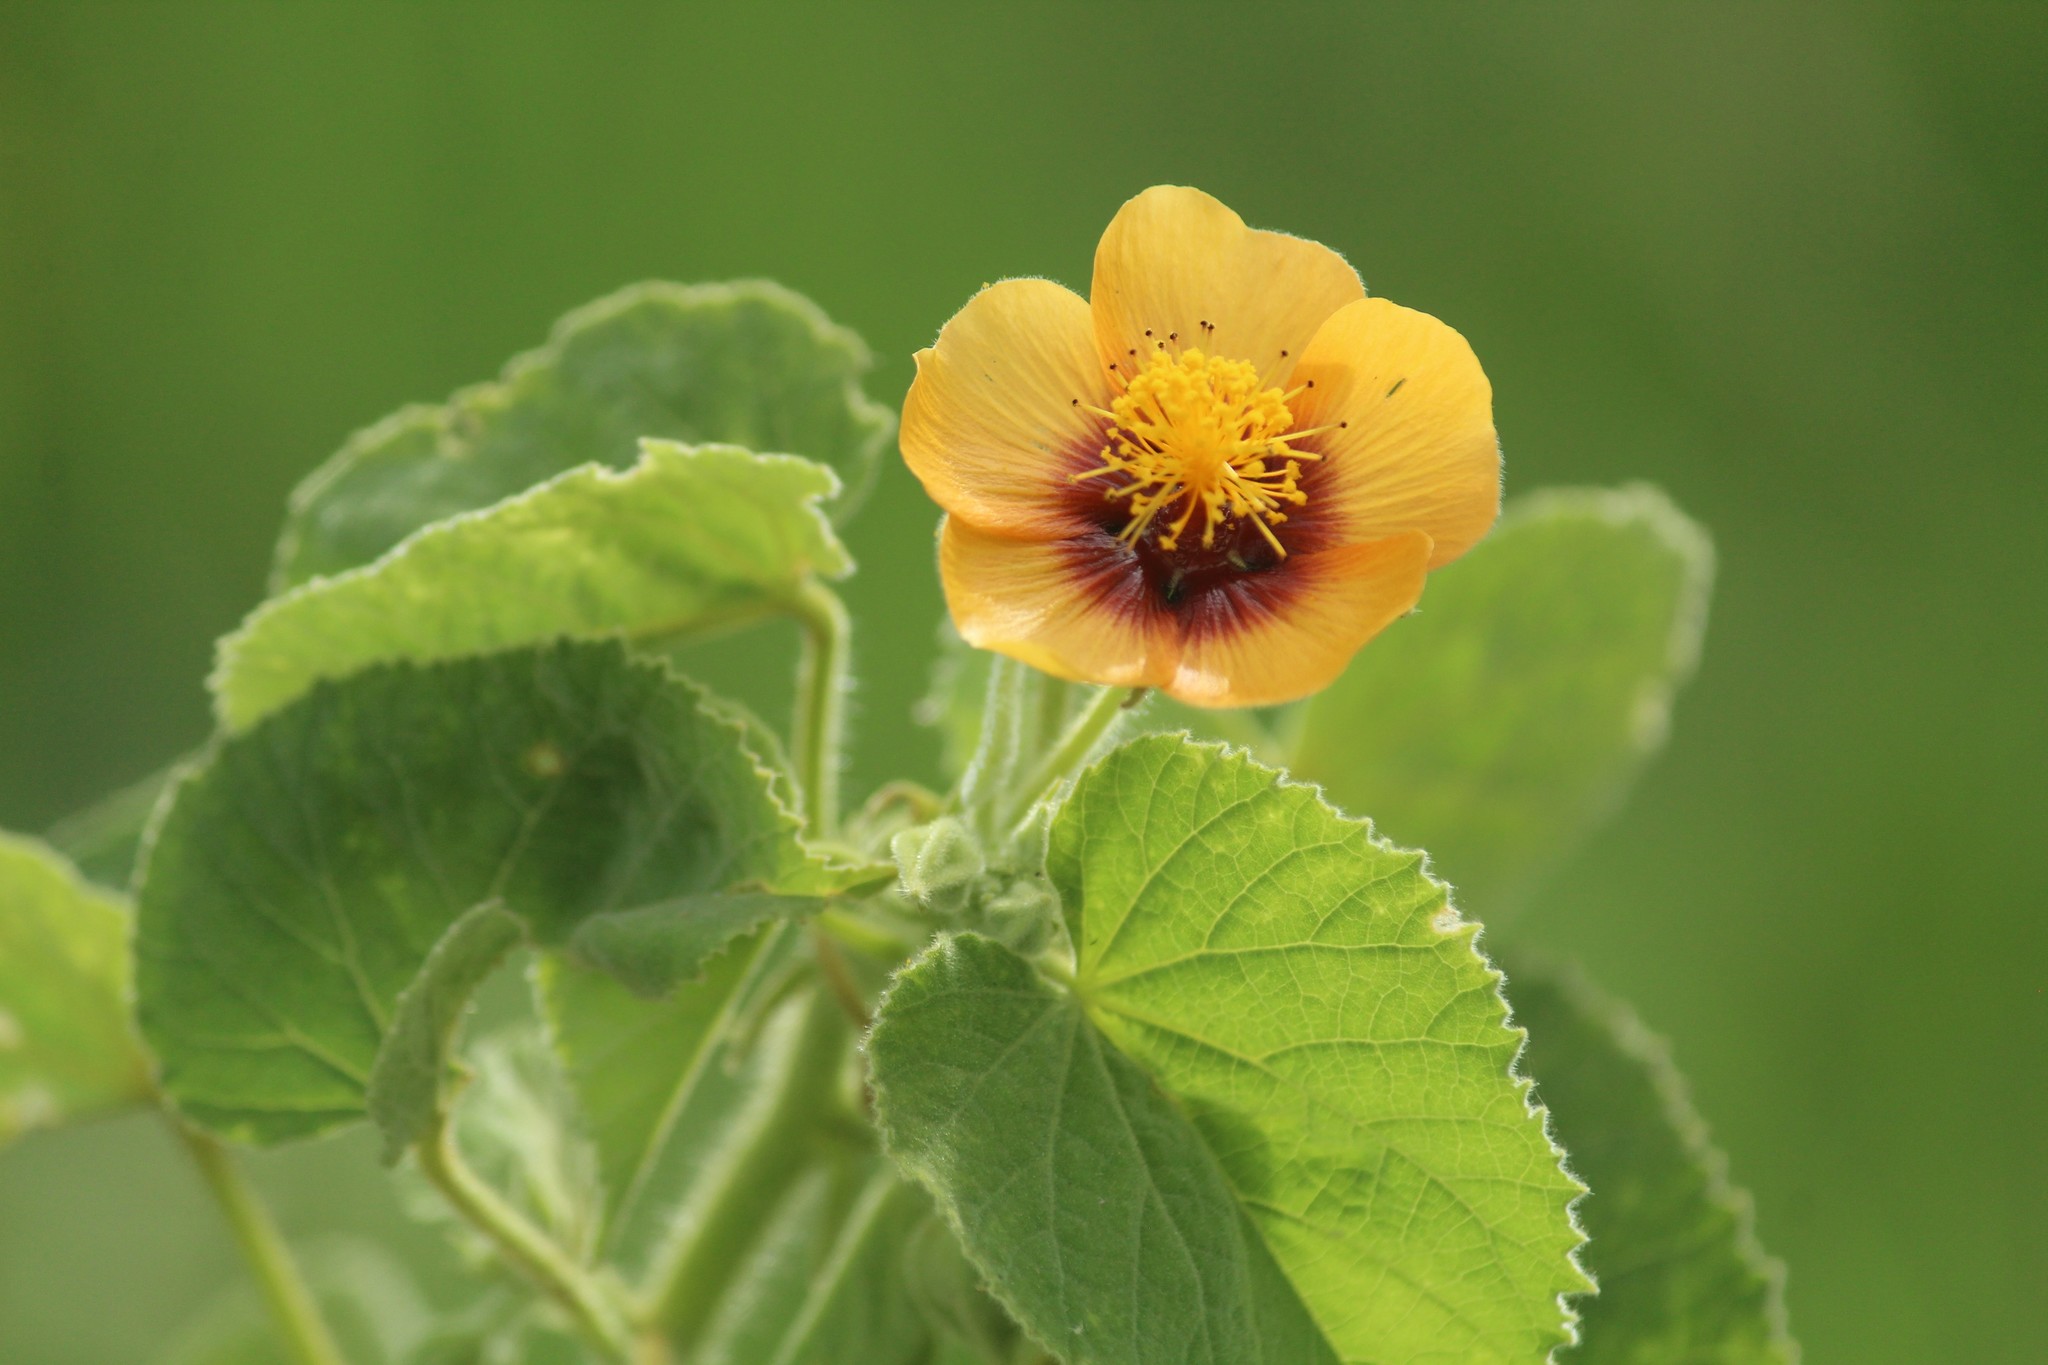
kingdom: Plantae
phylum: Tracheophyta
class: Magnoliopsida
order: Malvales
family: Malvaceae
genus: Abutilon
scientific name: Abutilon hirtum
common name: Florida keys indian mallow
